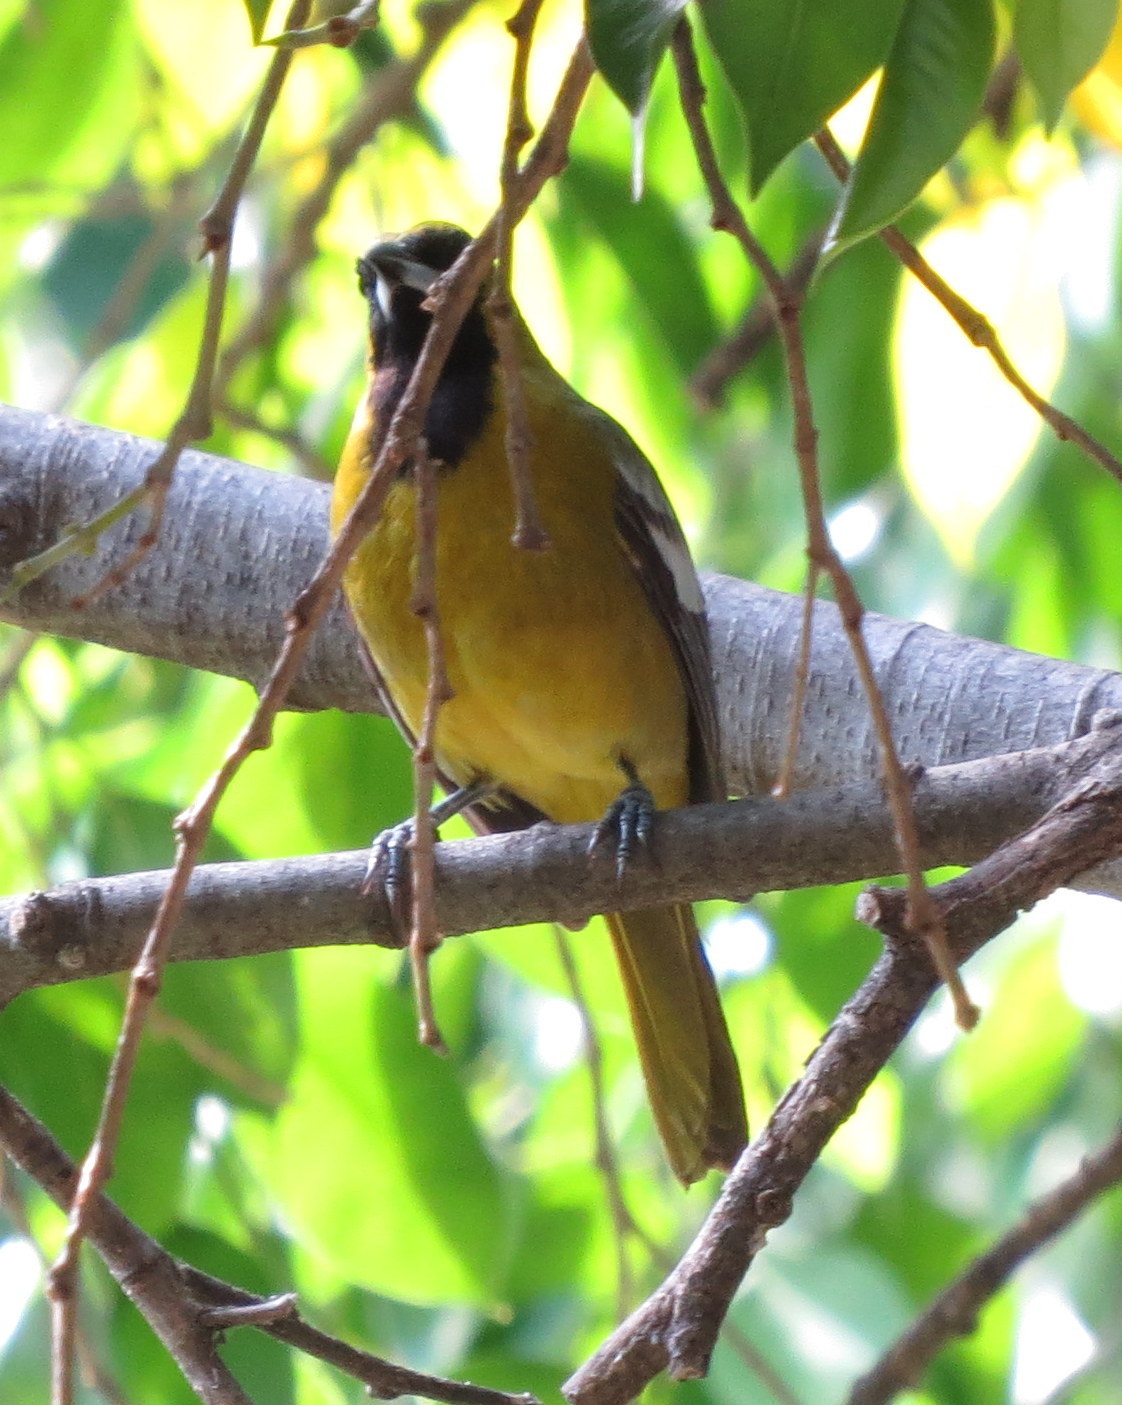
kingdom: Animalia
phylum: Chordata
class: Aves
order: Passeriformes
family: Icteridae
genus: Icterus
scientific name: Icterus leucopteryx
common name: Jamaican oriole
